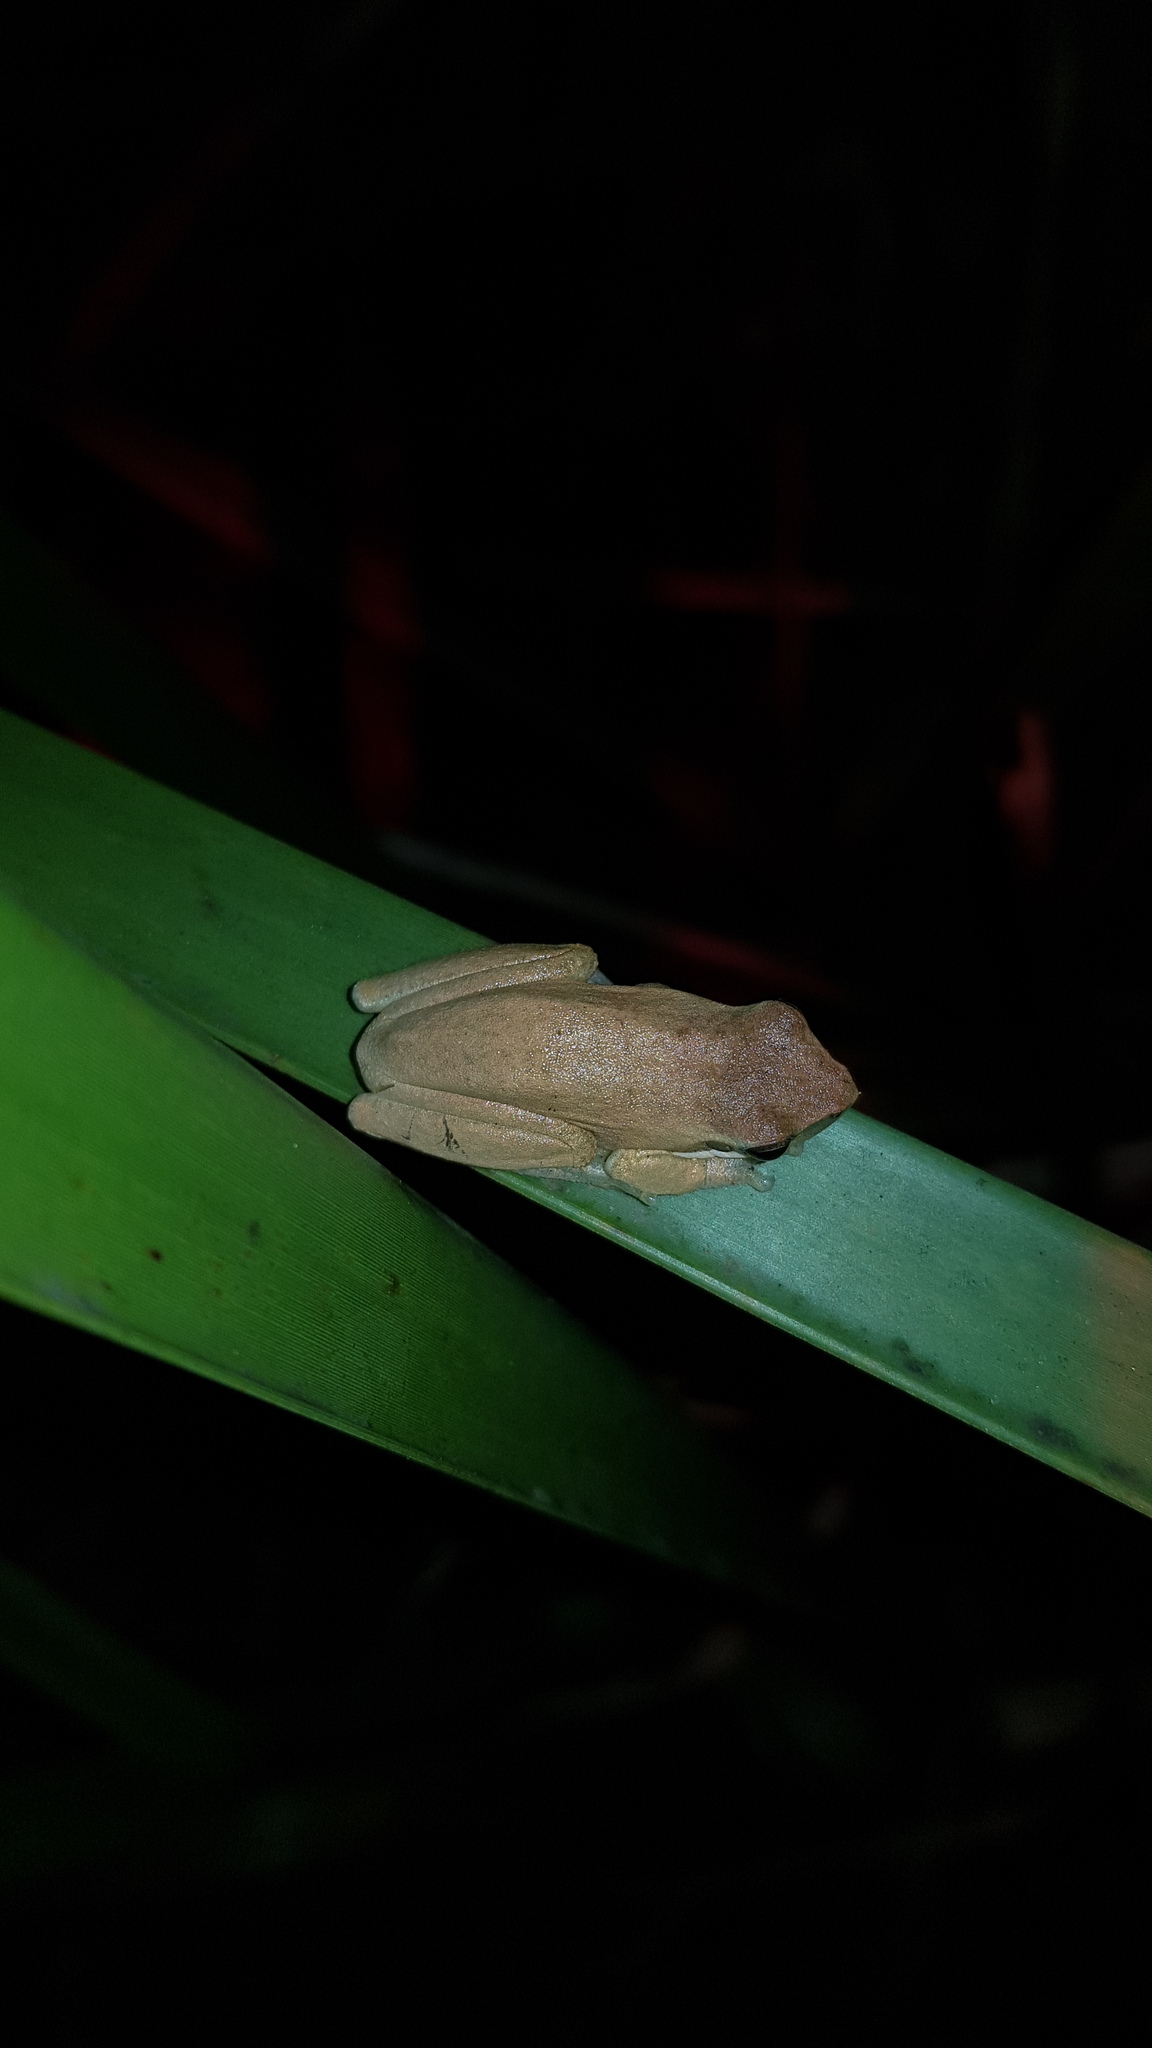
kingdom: Animalia
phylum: Chordata
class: Amphibia
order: Anura
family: Pelodryadidae
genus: Litoria
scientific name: Litoria fallax
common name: Eastern dwarf treefrog
